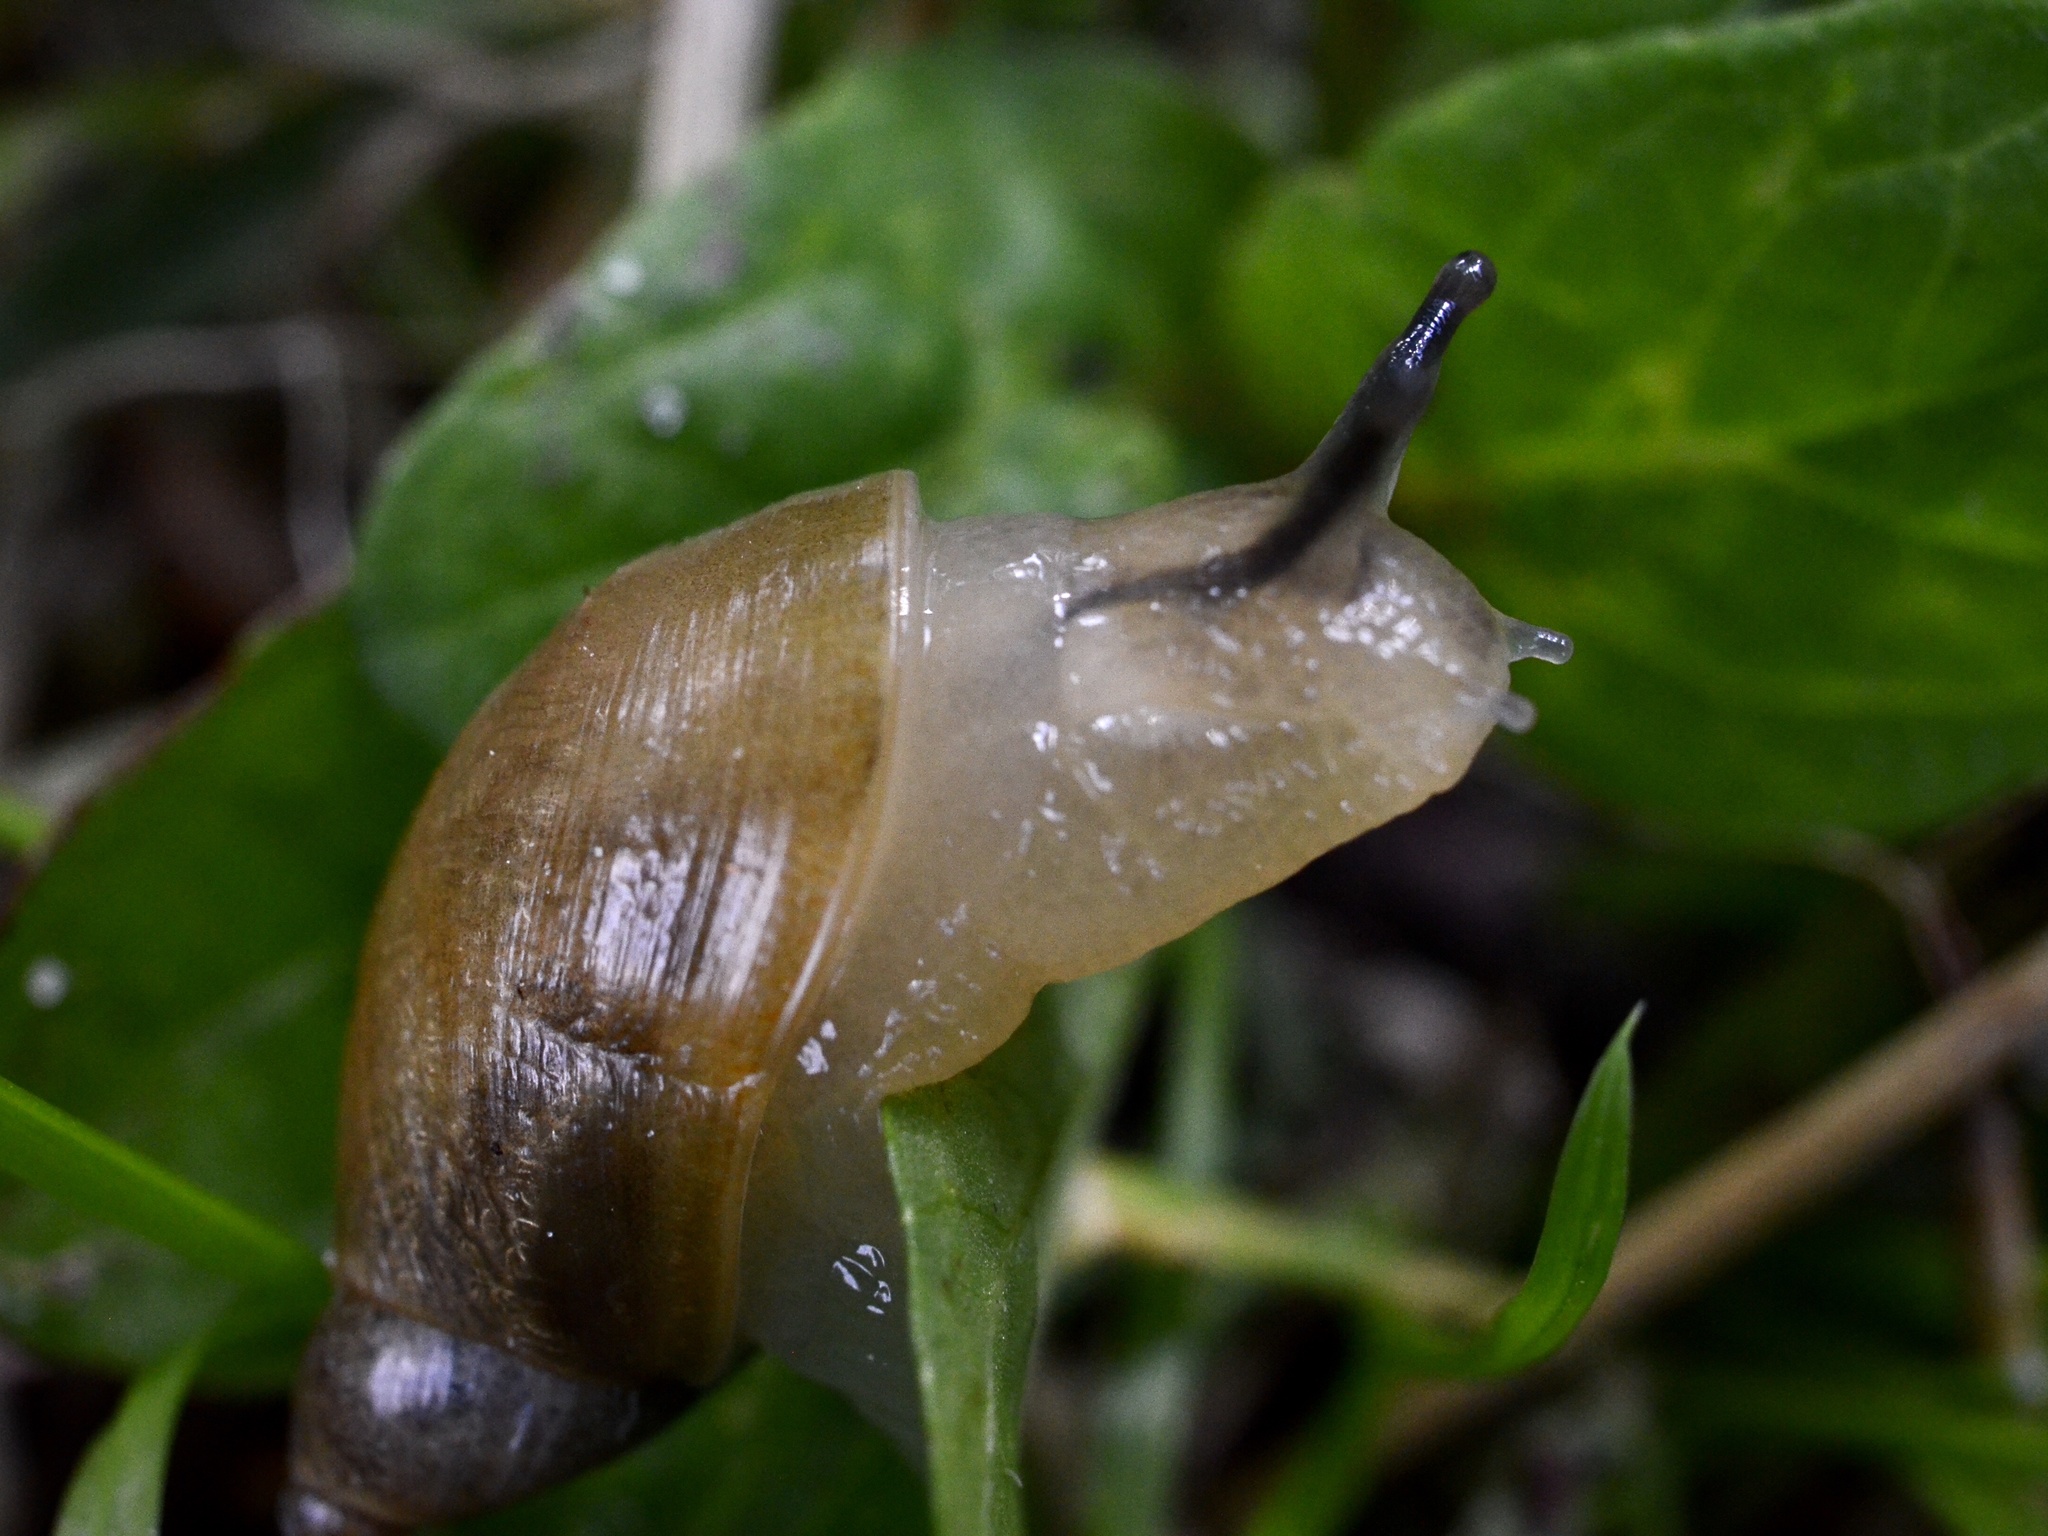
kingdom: Animalia
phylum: Mollusca
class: Gastropoda
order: Stylommatophora
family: Succineidae
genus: Succinea
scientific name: Succinea putris
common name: European ambersnail
